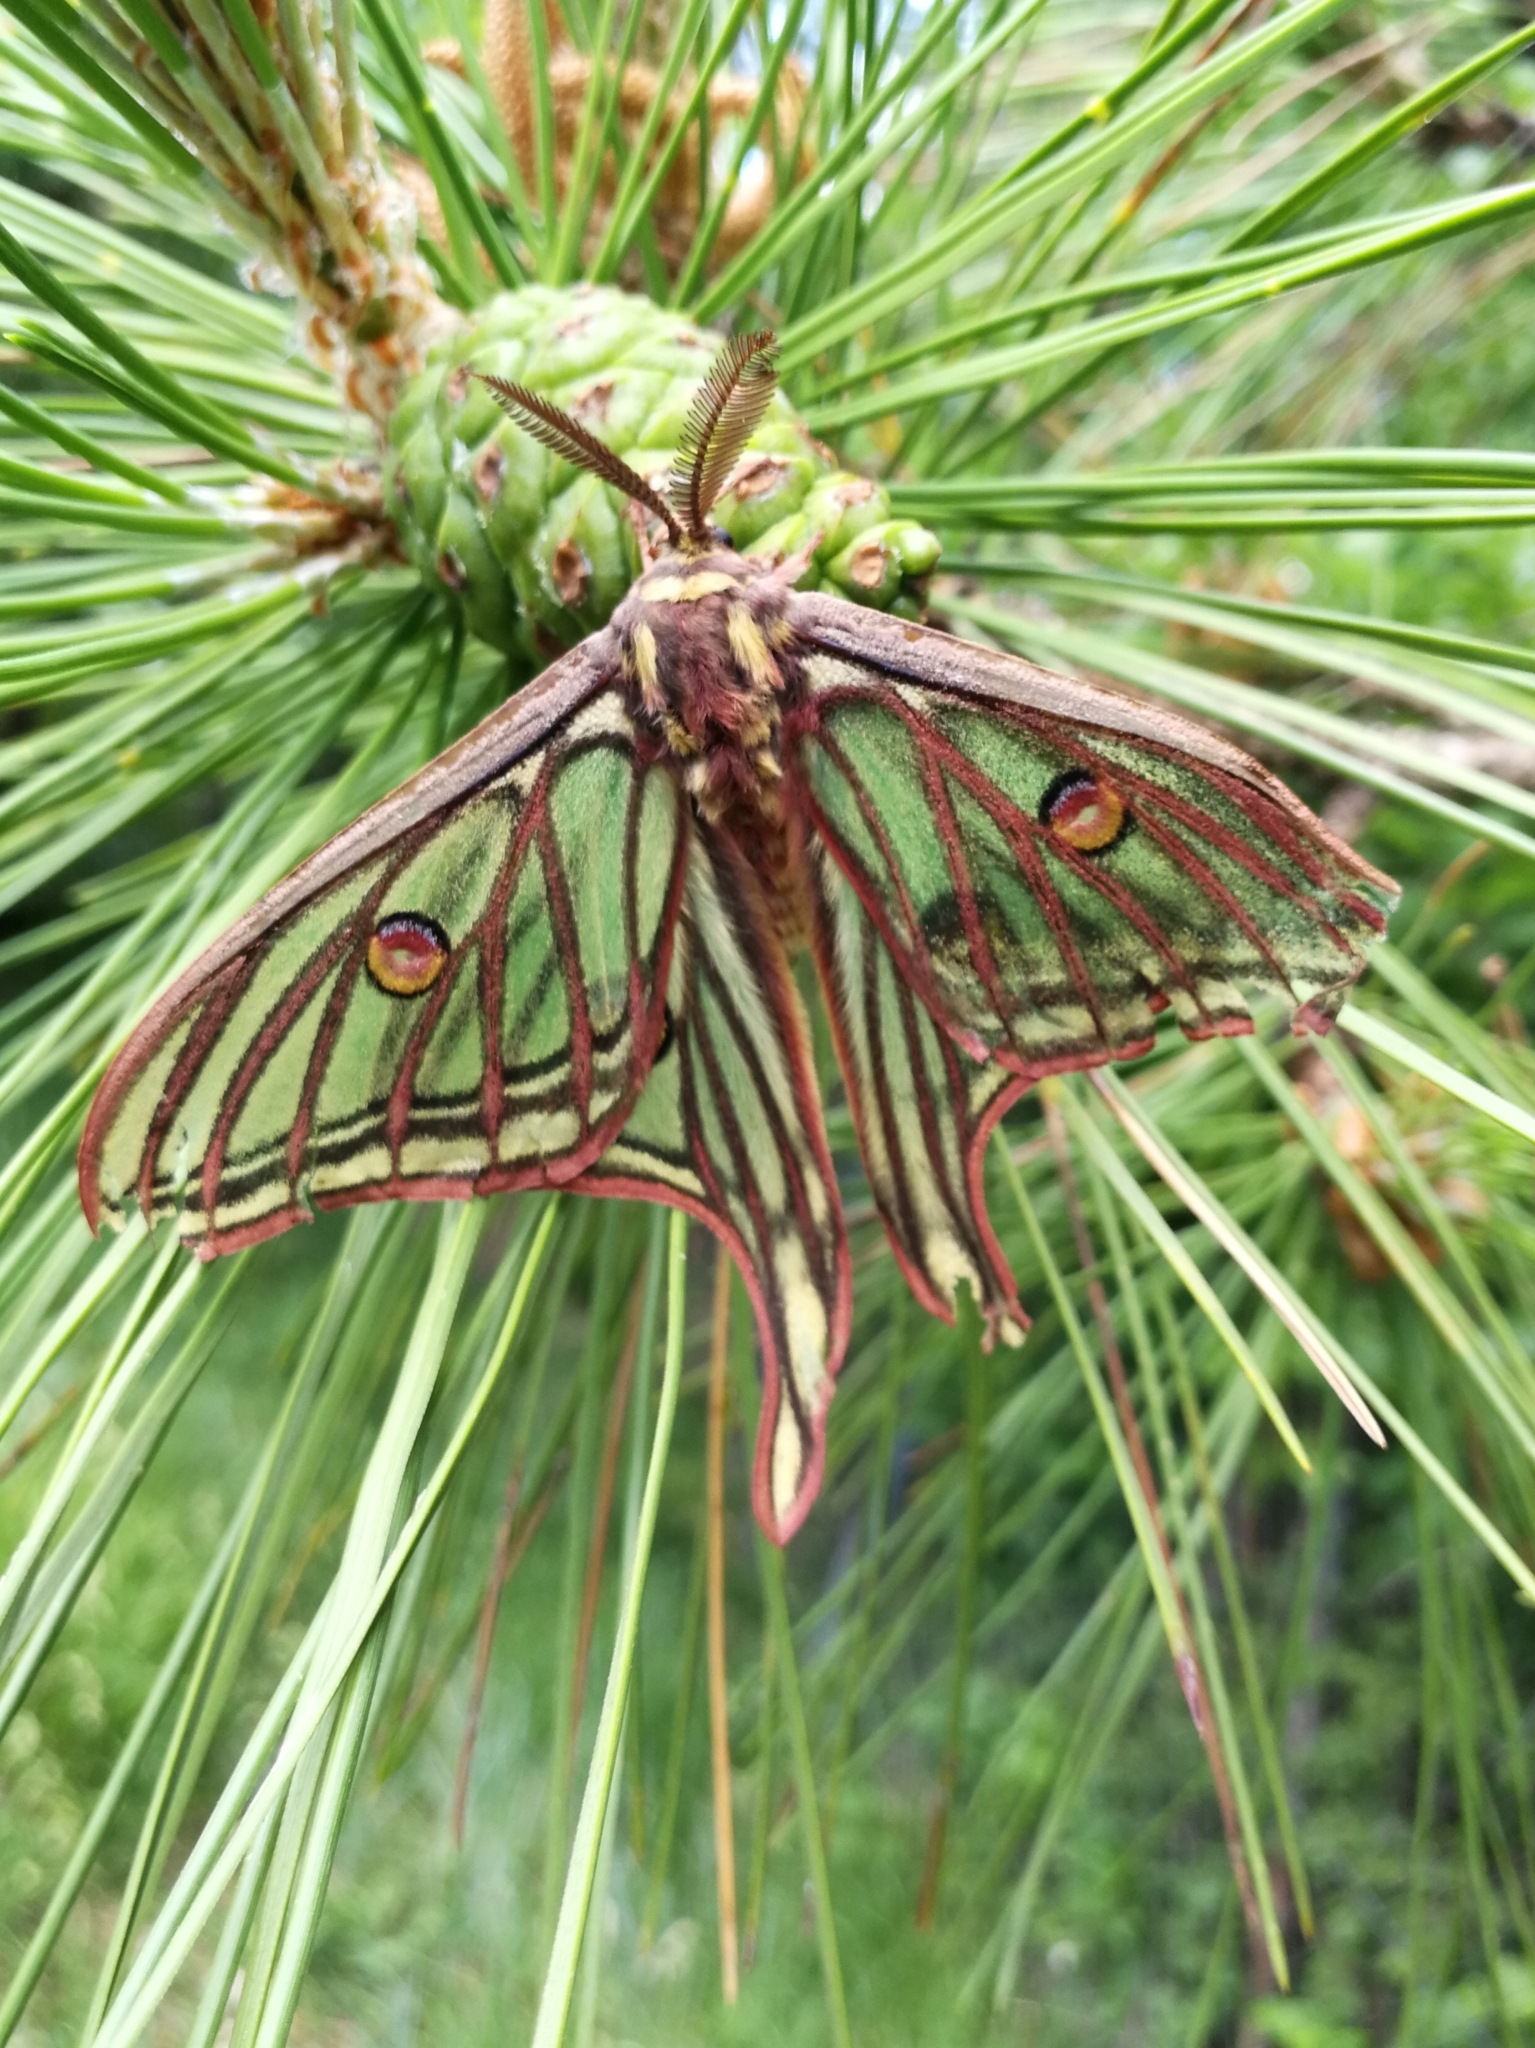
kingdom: Animalia
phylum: Arthropoda
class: Insecta
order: Lepidoptera
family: Saturniidae
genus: Graellsia
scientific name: Graellsia isabellae
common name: Spanish moon moth
